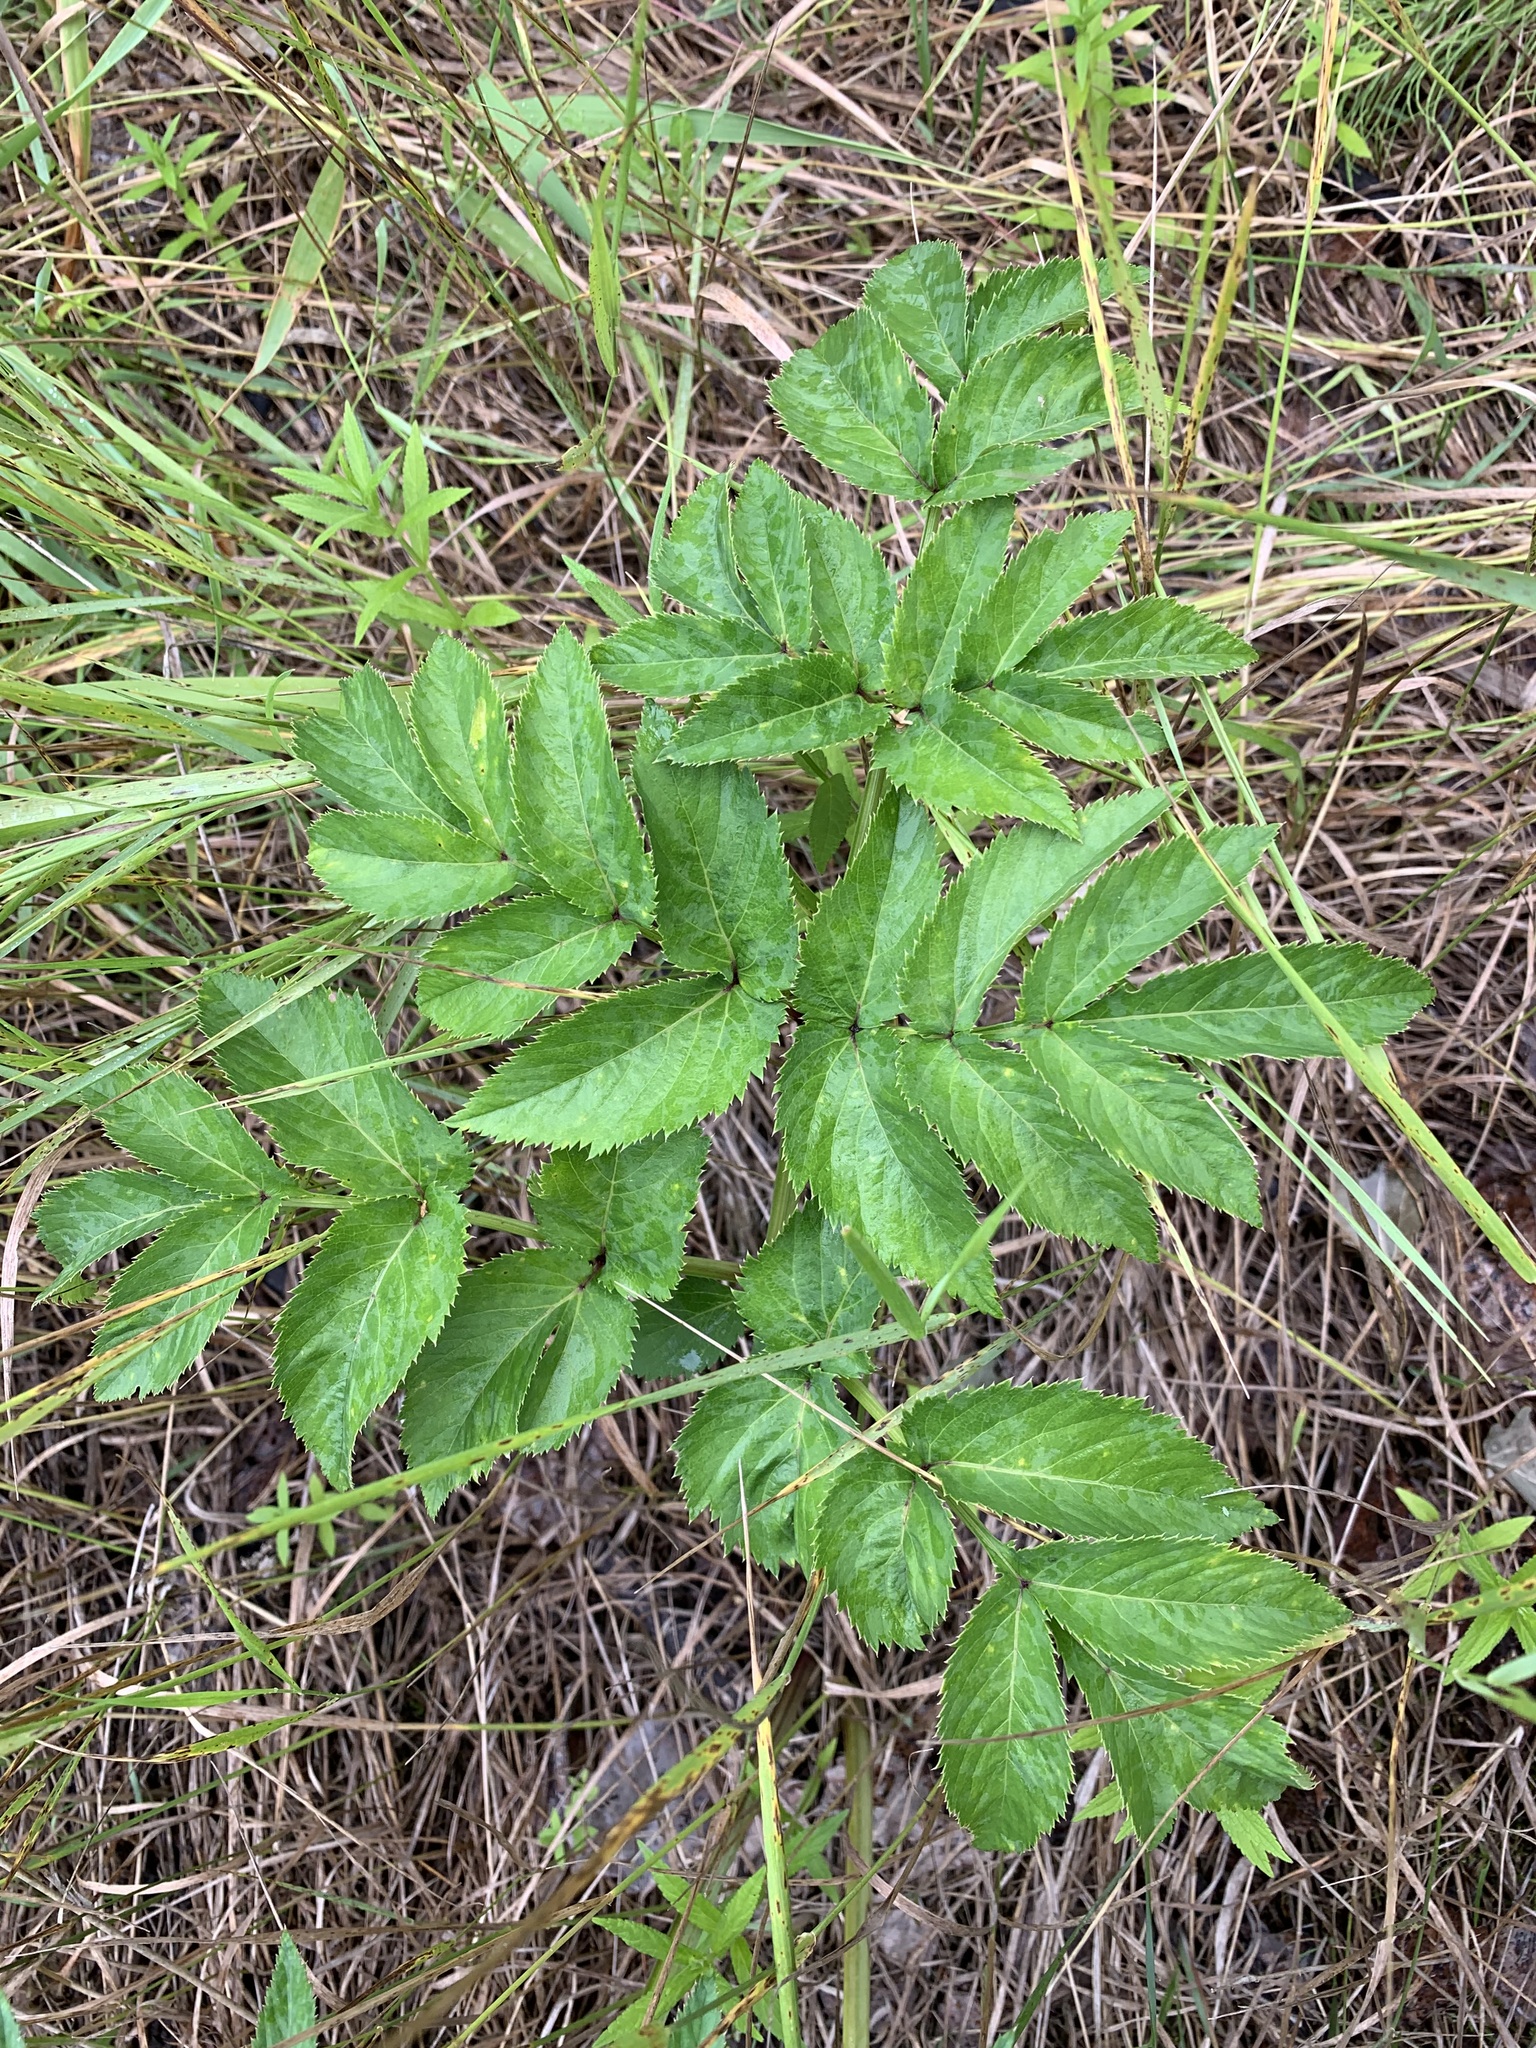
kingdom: Plantae
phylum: Tracheophyta
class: Magnoliopsida
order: Apiales
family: Apiaceae
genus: Angelica
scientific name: Angelica sylvestris
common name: Wild angelica
